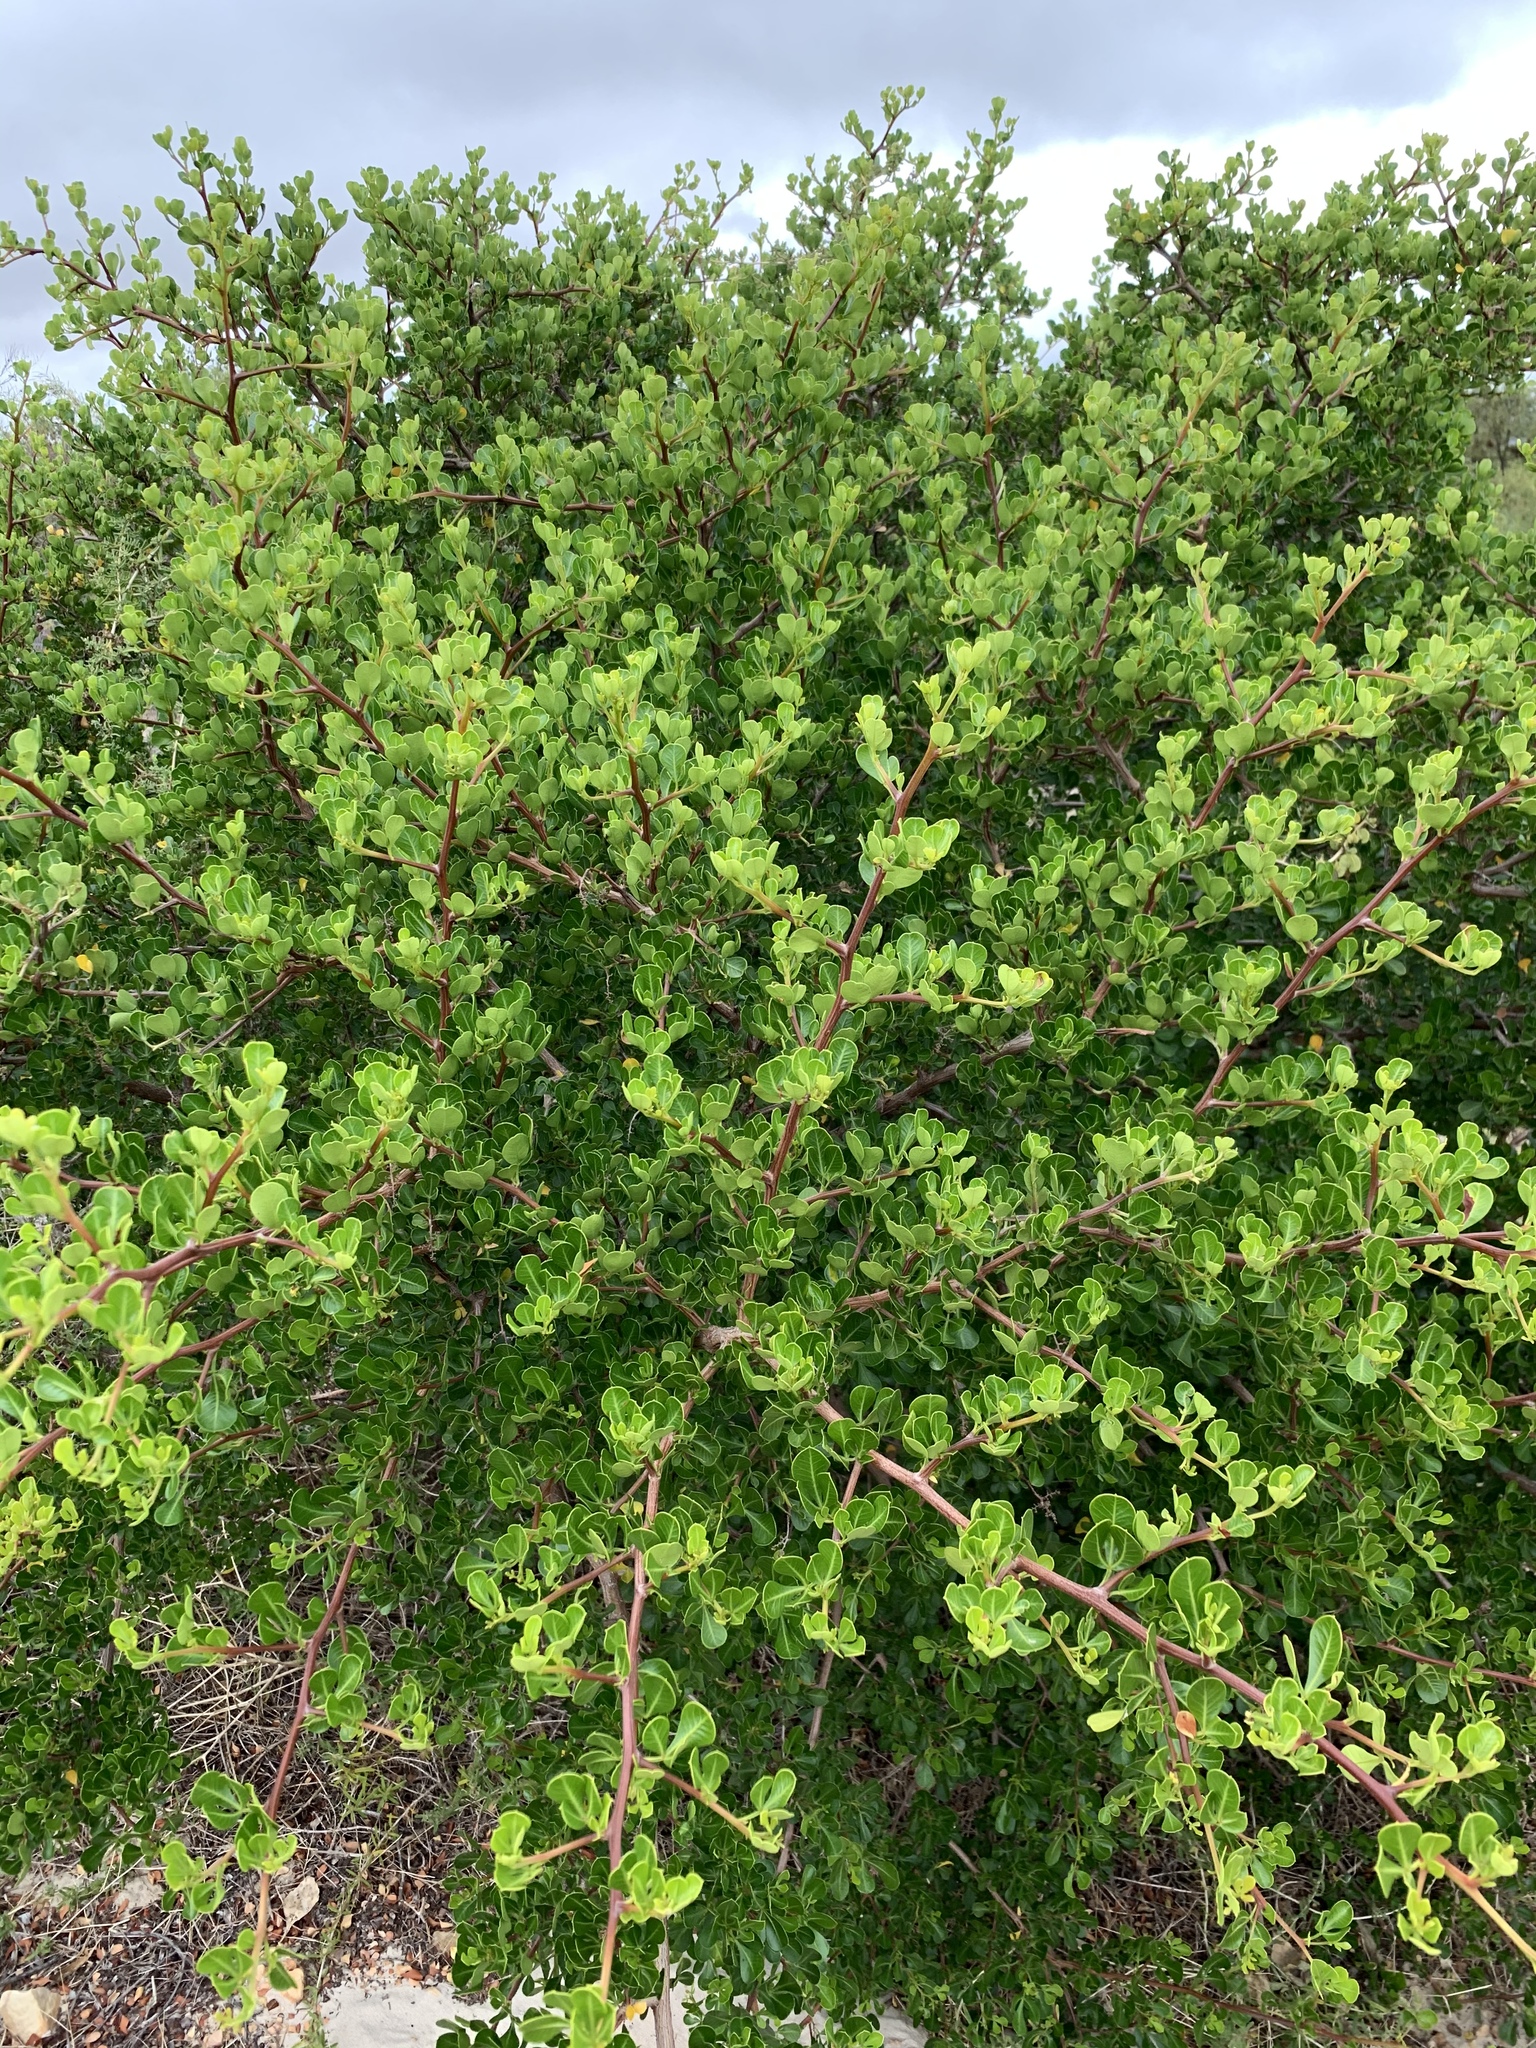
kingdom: Plantae
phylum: Tracheophyta
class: Magnoliopsida
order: Sapindales
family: Anacardiaceae
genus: Searsia
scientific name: Searsia glauca
